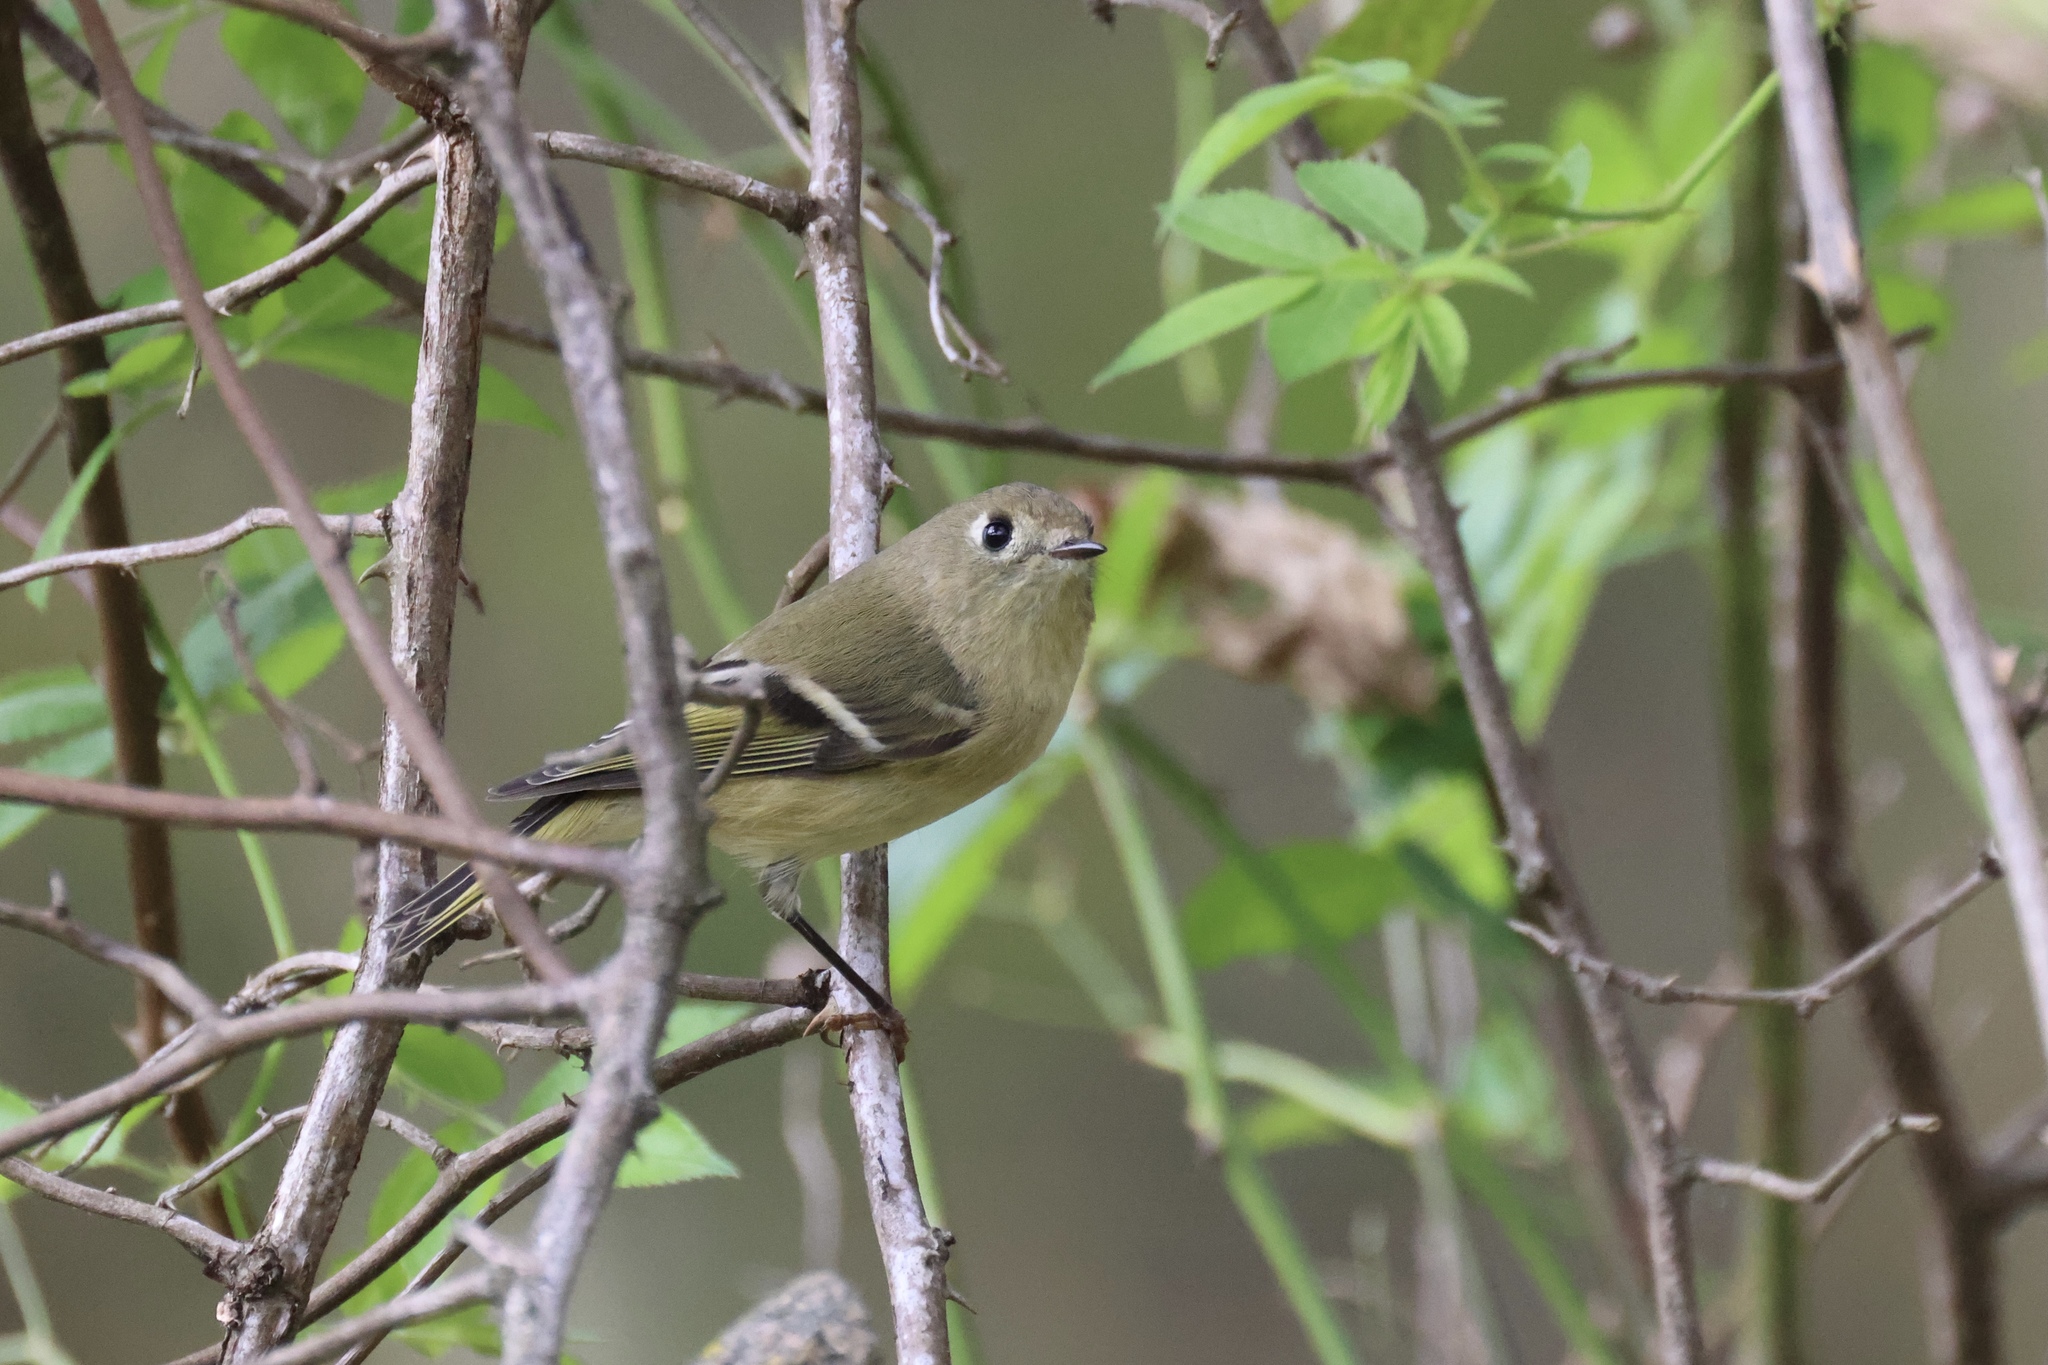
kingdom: Animalia
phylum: Chordata
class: Aves
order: Passeriformes
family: Regulidae
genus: Regulus
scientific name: Regulus calendula
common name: Ruby-crowned kinglet
